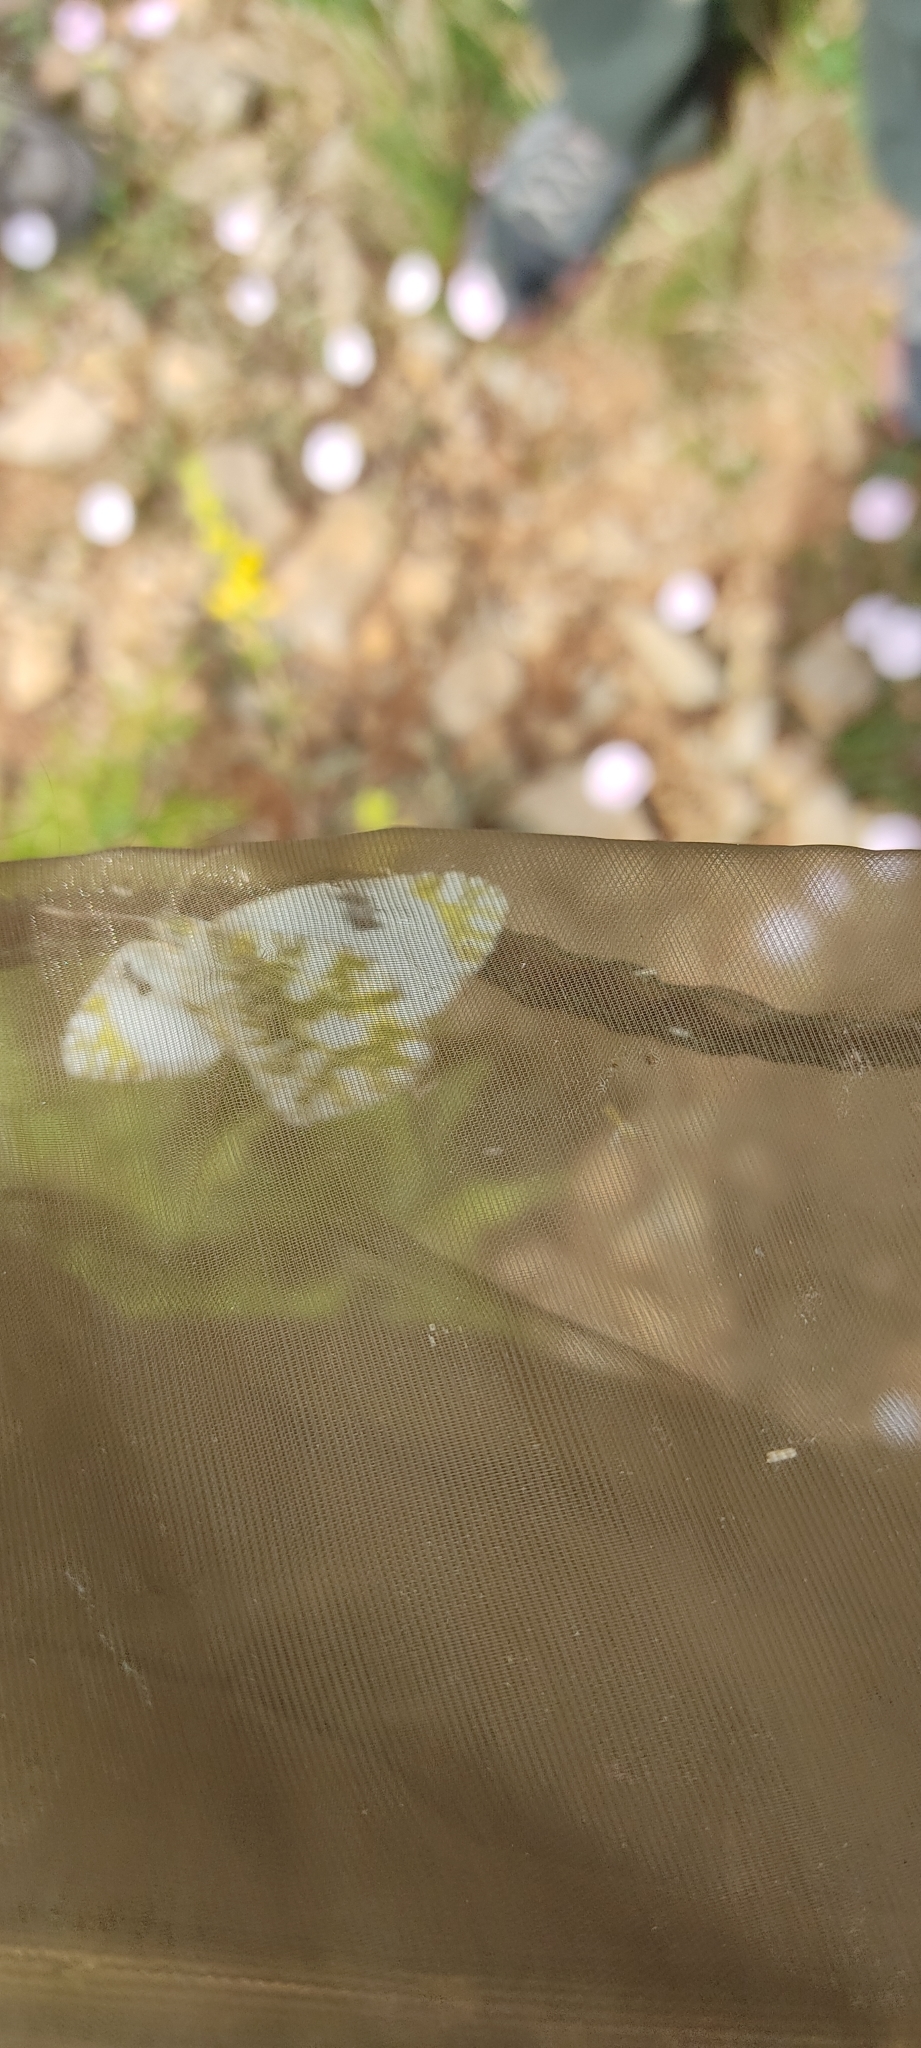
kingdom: Animalia
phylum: Arthropoda
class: Insecta
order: Lepidoptera
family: Pieridae
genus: Euchloe
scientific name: Euchloe crameri
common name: Western dappled white
